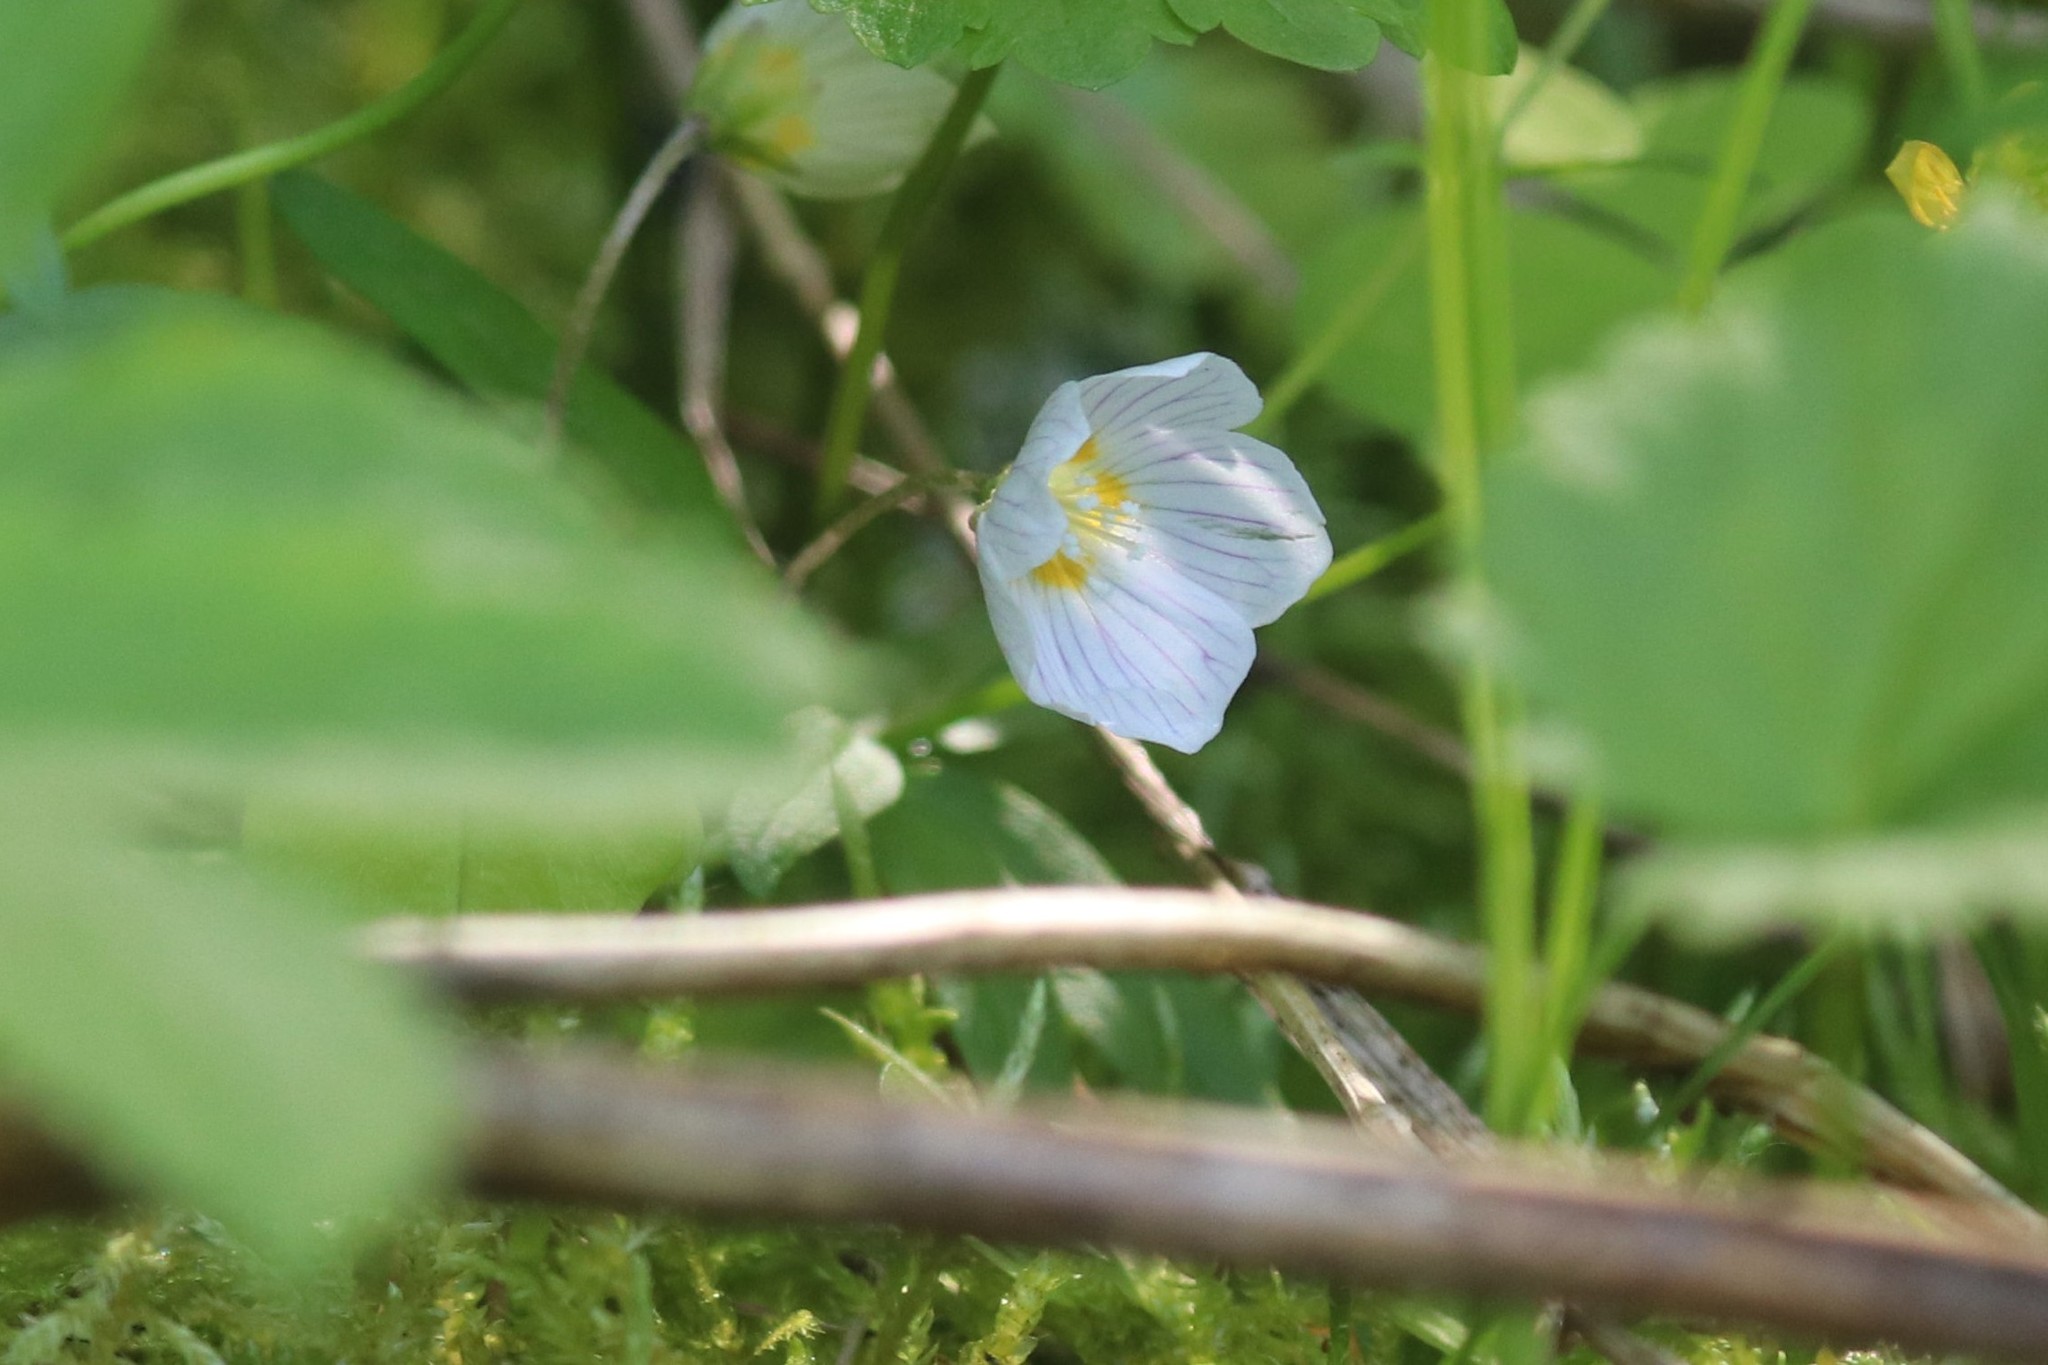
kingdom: Plantae
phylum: Tracheophyta
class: Magnoliopsida
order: Oxalidales
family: Oxalidaceae
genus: Oxalis
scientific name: Oxalis acetosella
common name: Wood-sorrel
